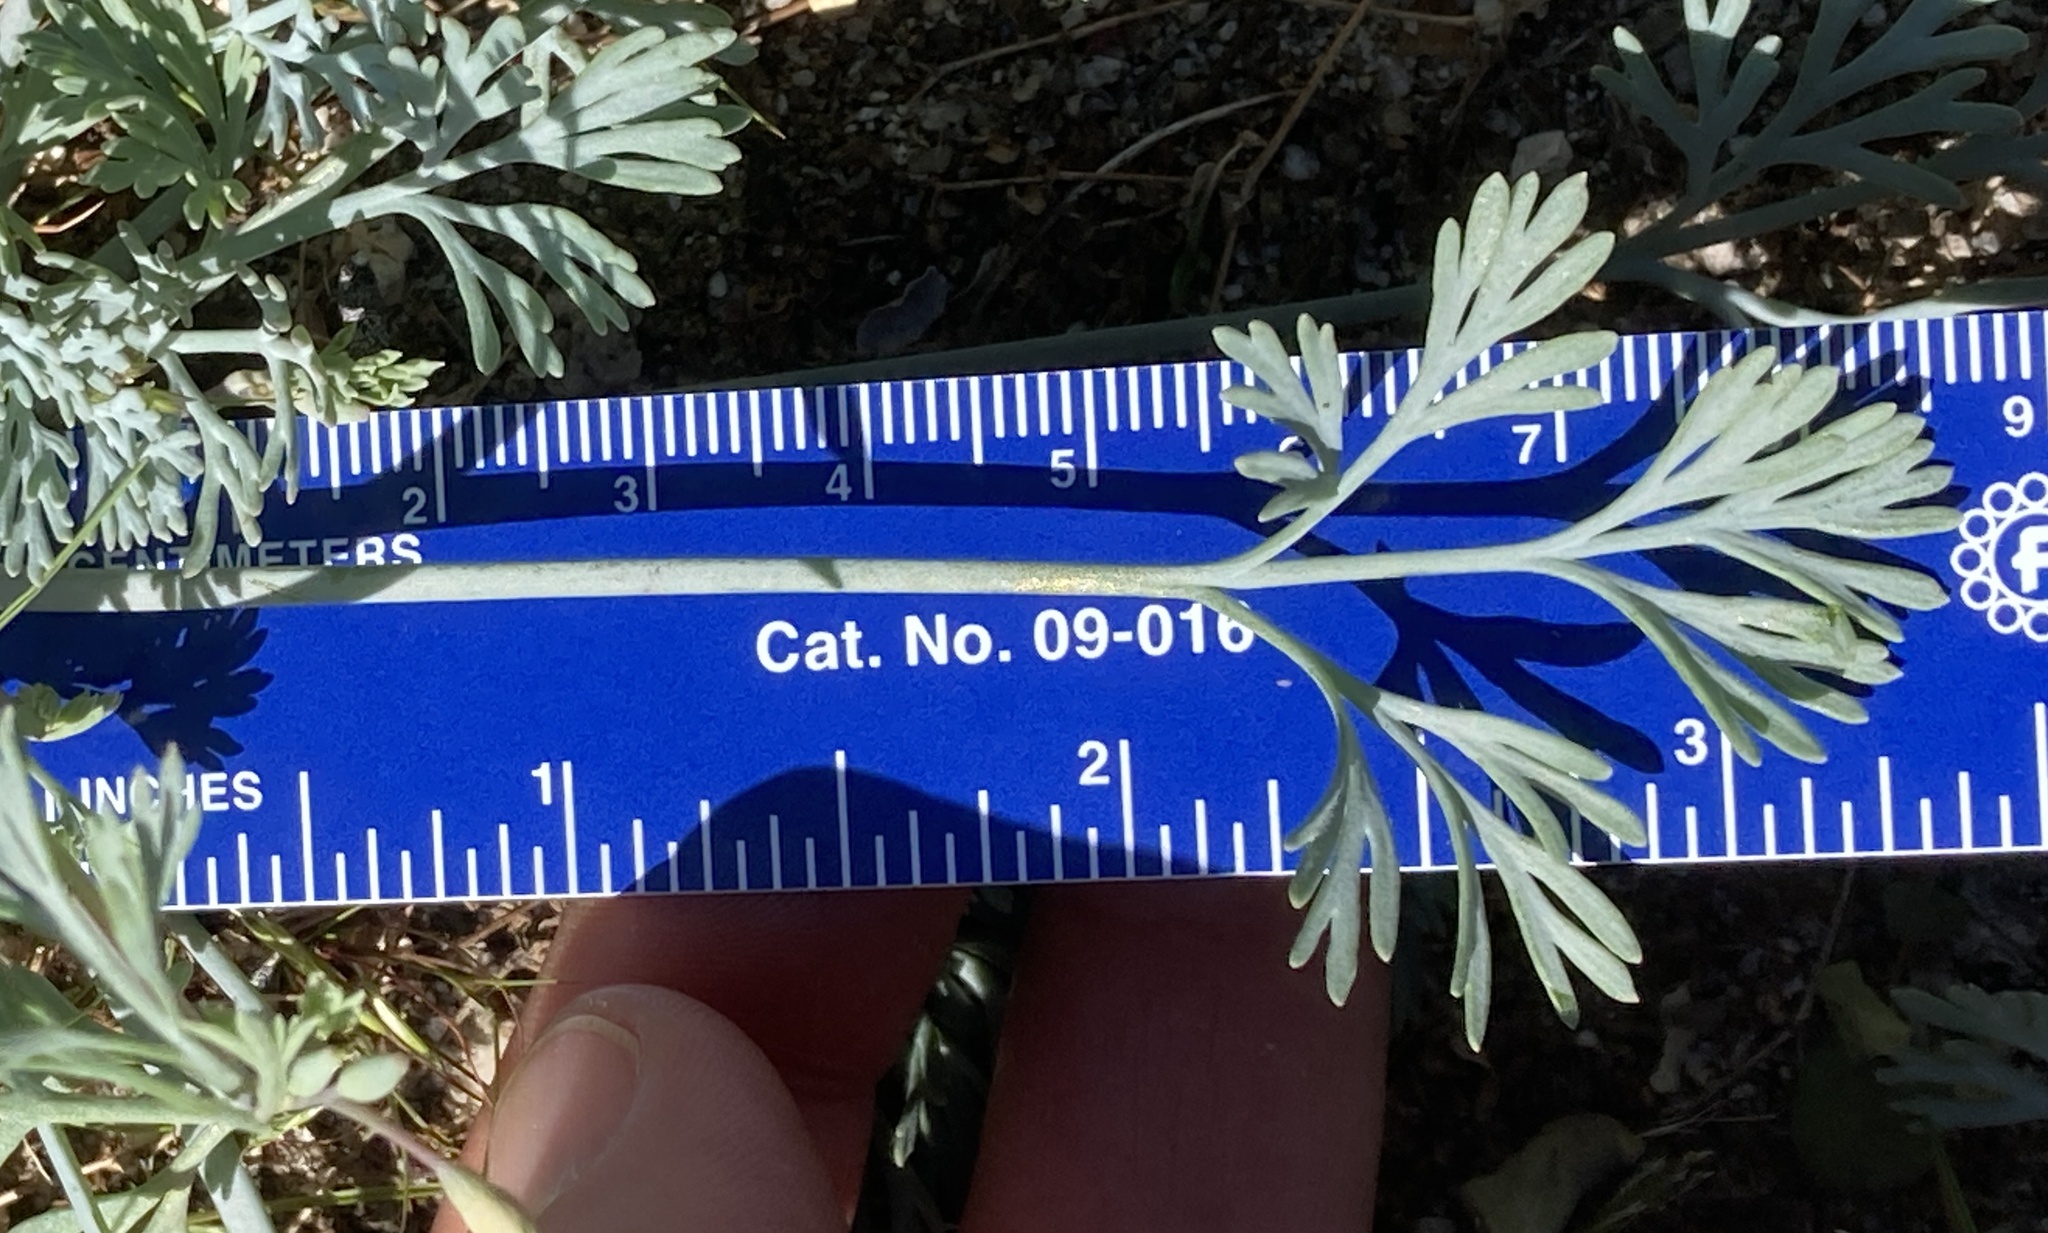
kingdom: Plantae
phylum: Tracheophyta
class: Magnoliopsida
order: Ranunculales
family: Papaveraceae
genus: Eschscholzia
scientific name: Eschscholzia minutiflora
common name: Small-flower california-poppy
